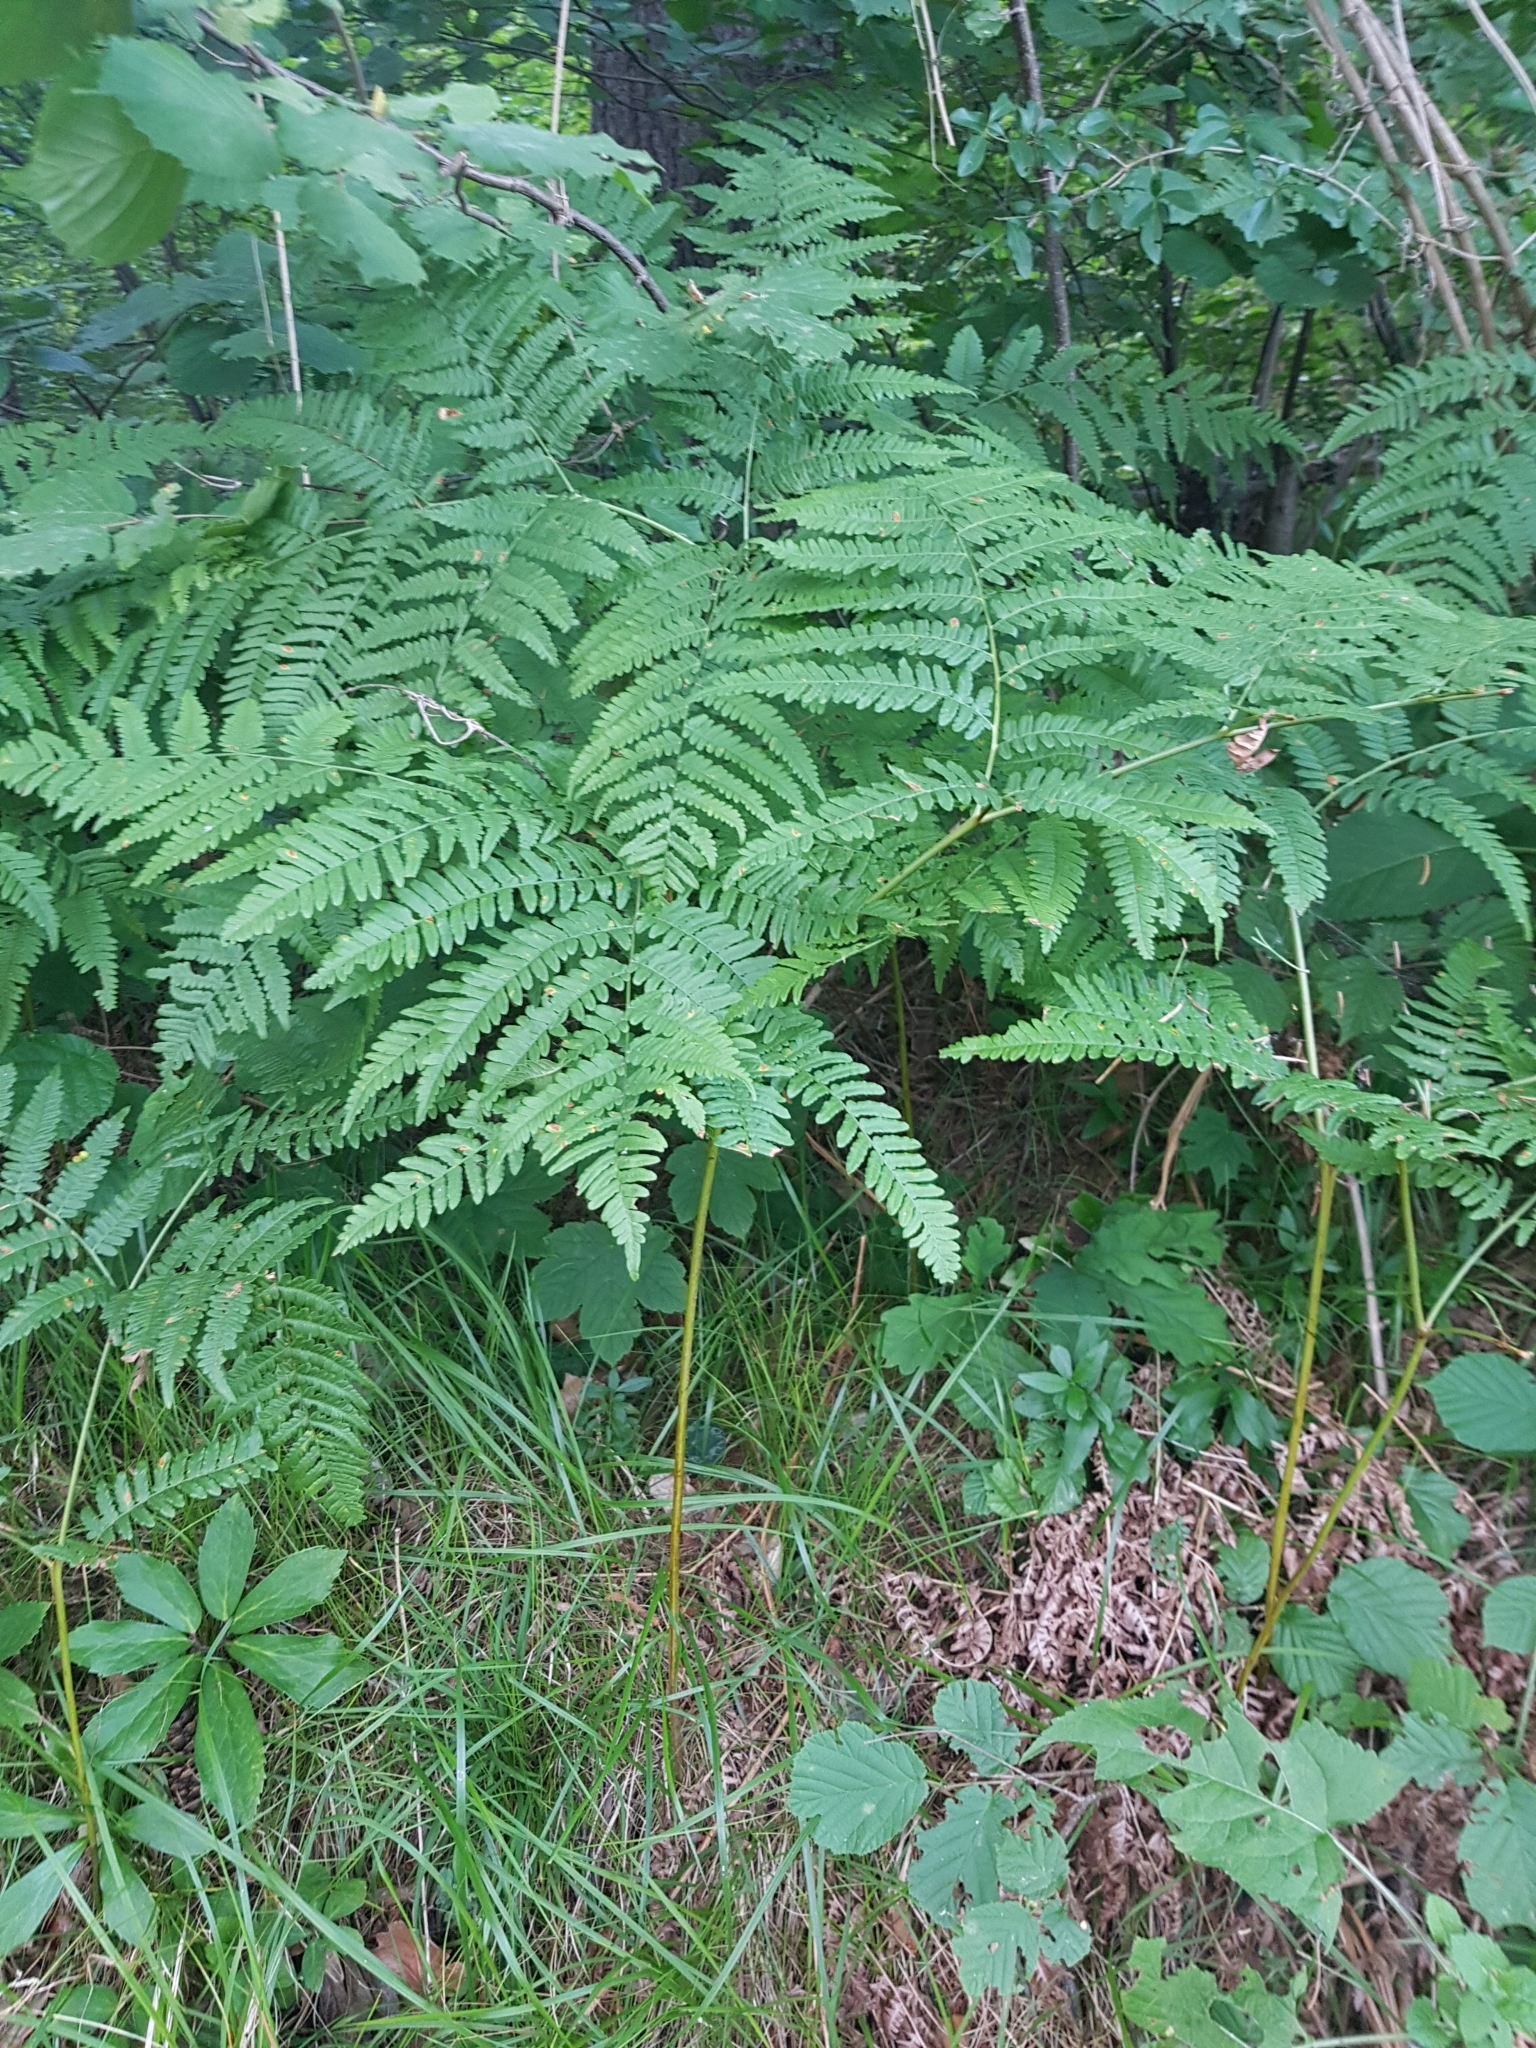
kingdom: Plantae
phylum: Tracheophyta
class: Polypodiopsida
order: Polypodiales
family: Dennstaedtiaceae
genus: Pteridium
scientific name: Pteridium aquilinum
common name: Bracken
